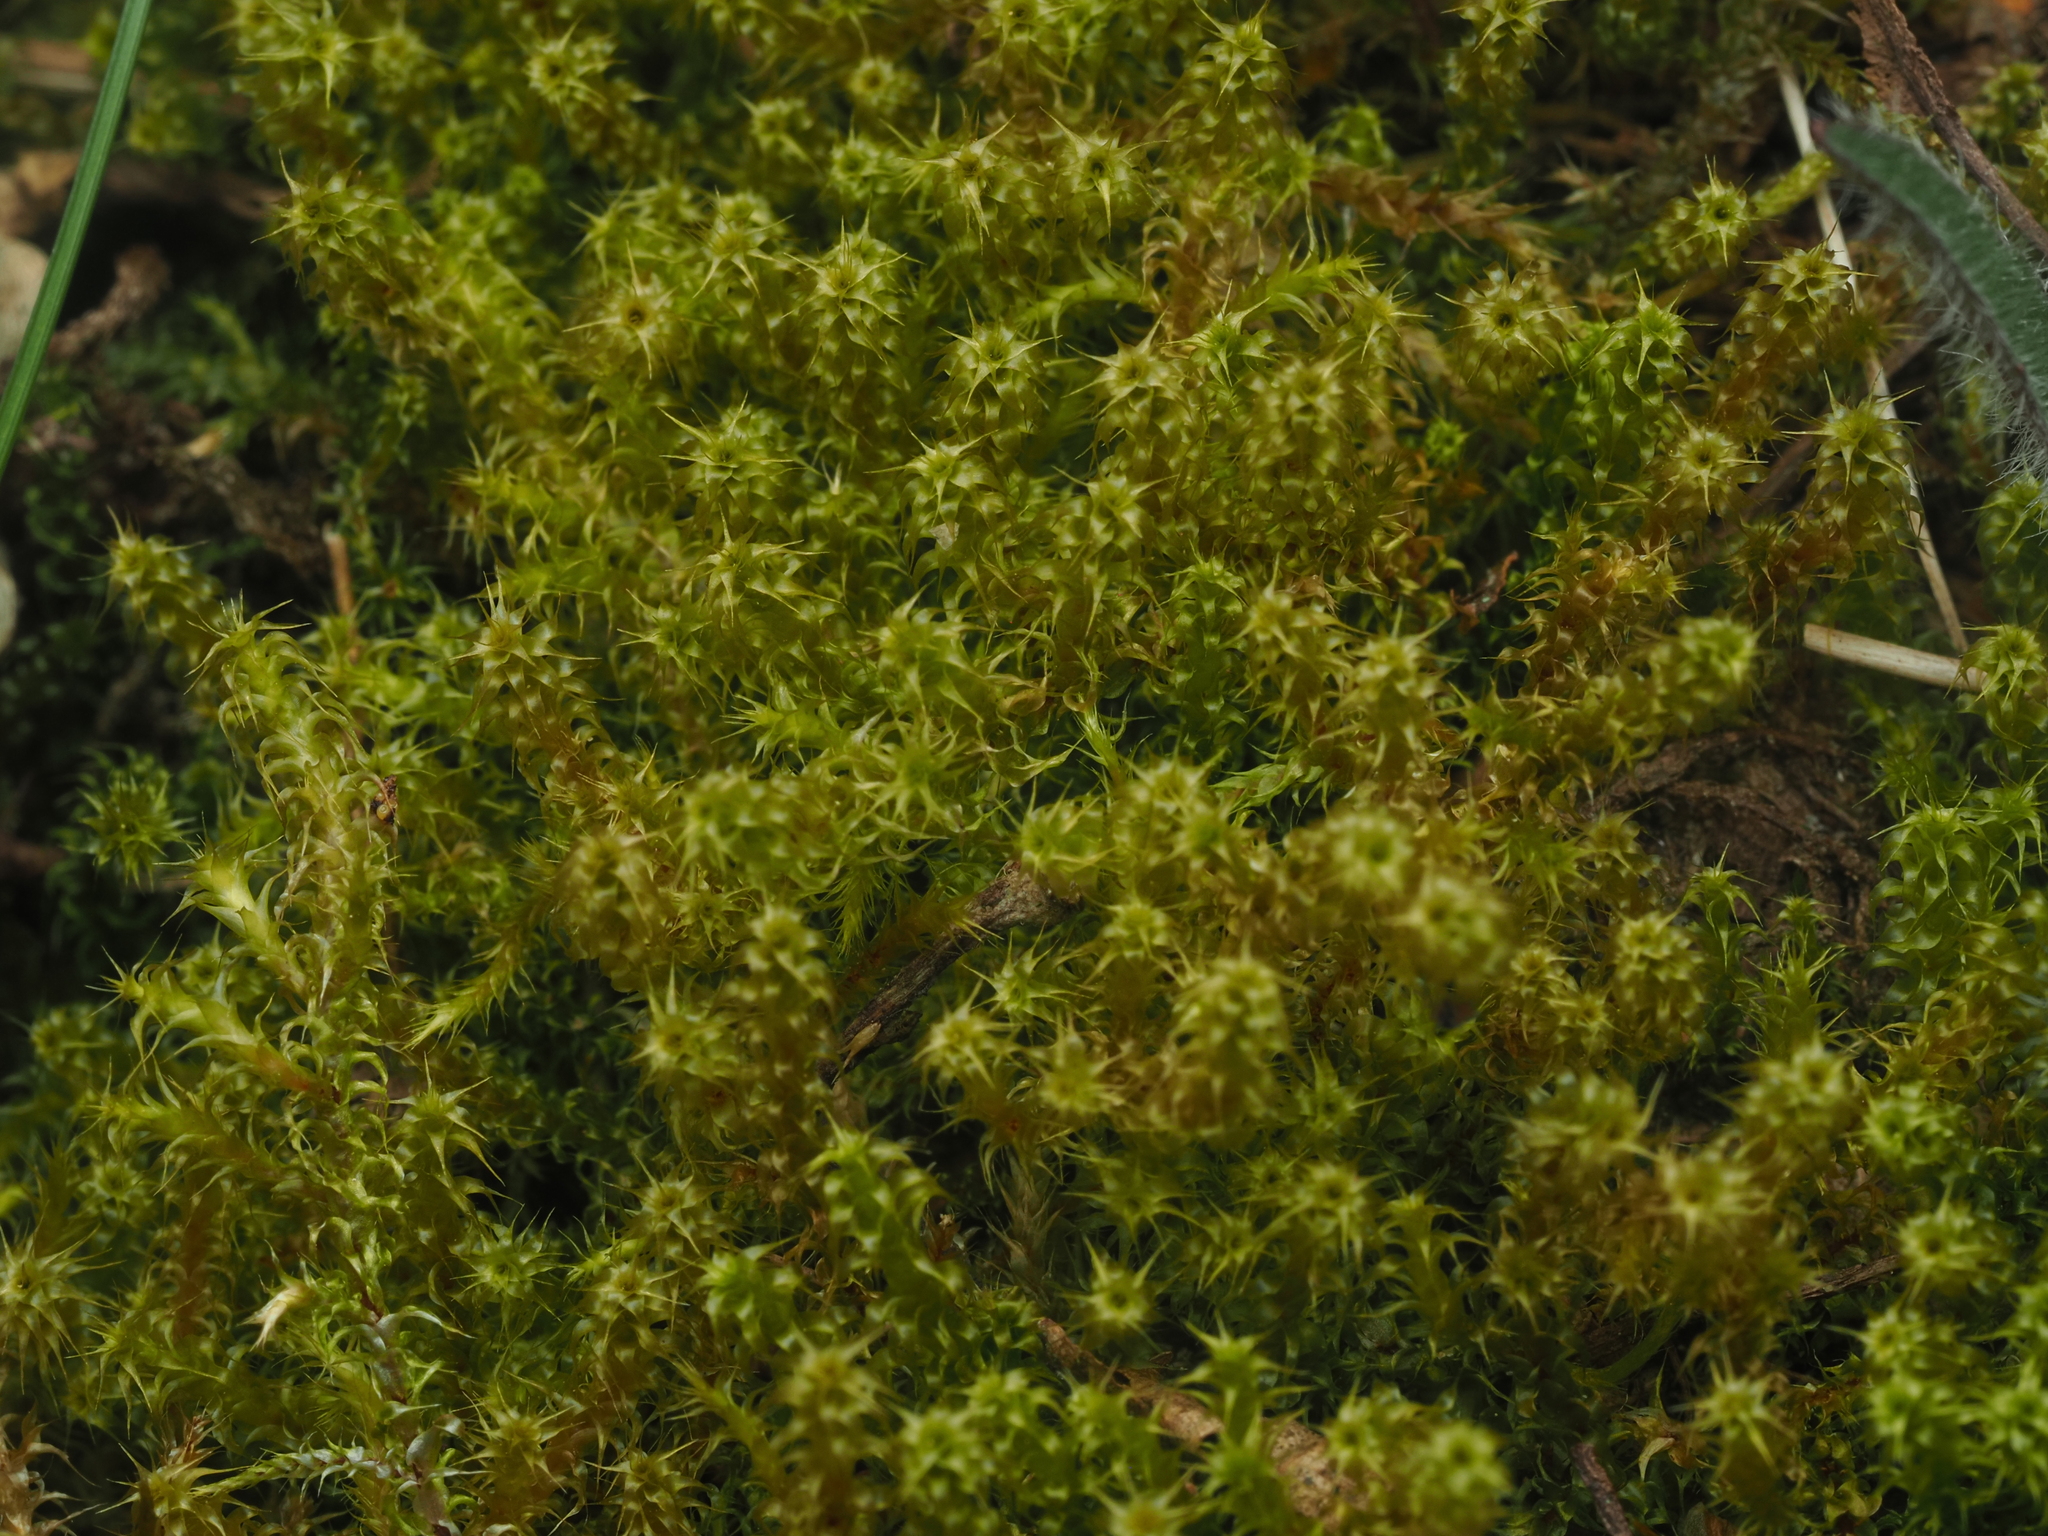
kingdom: Plantae
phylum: Bryophyta
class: Bryopsida
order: Hypnales
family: Hylocomiaceae
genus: Rhytidiadelphus
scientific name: Rhytidiadelphus squarrosus
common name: Springy turf-moss
